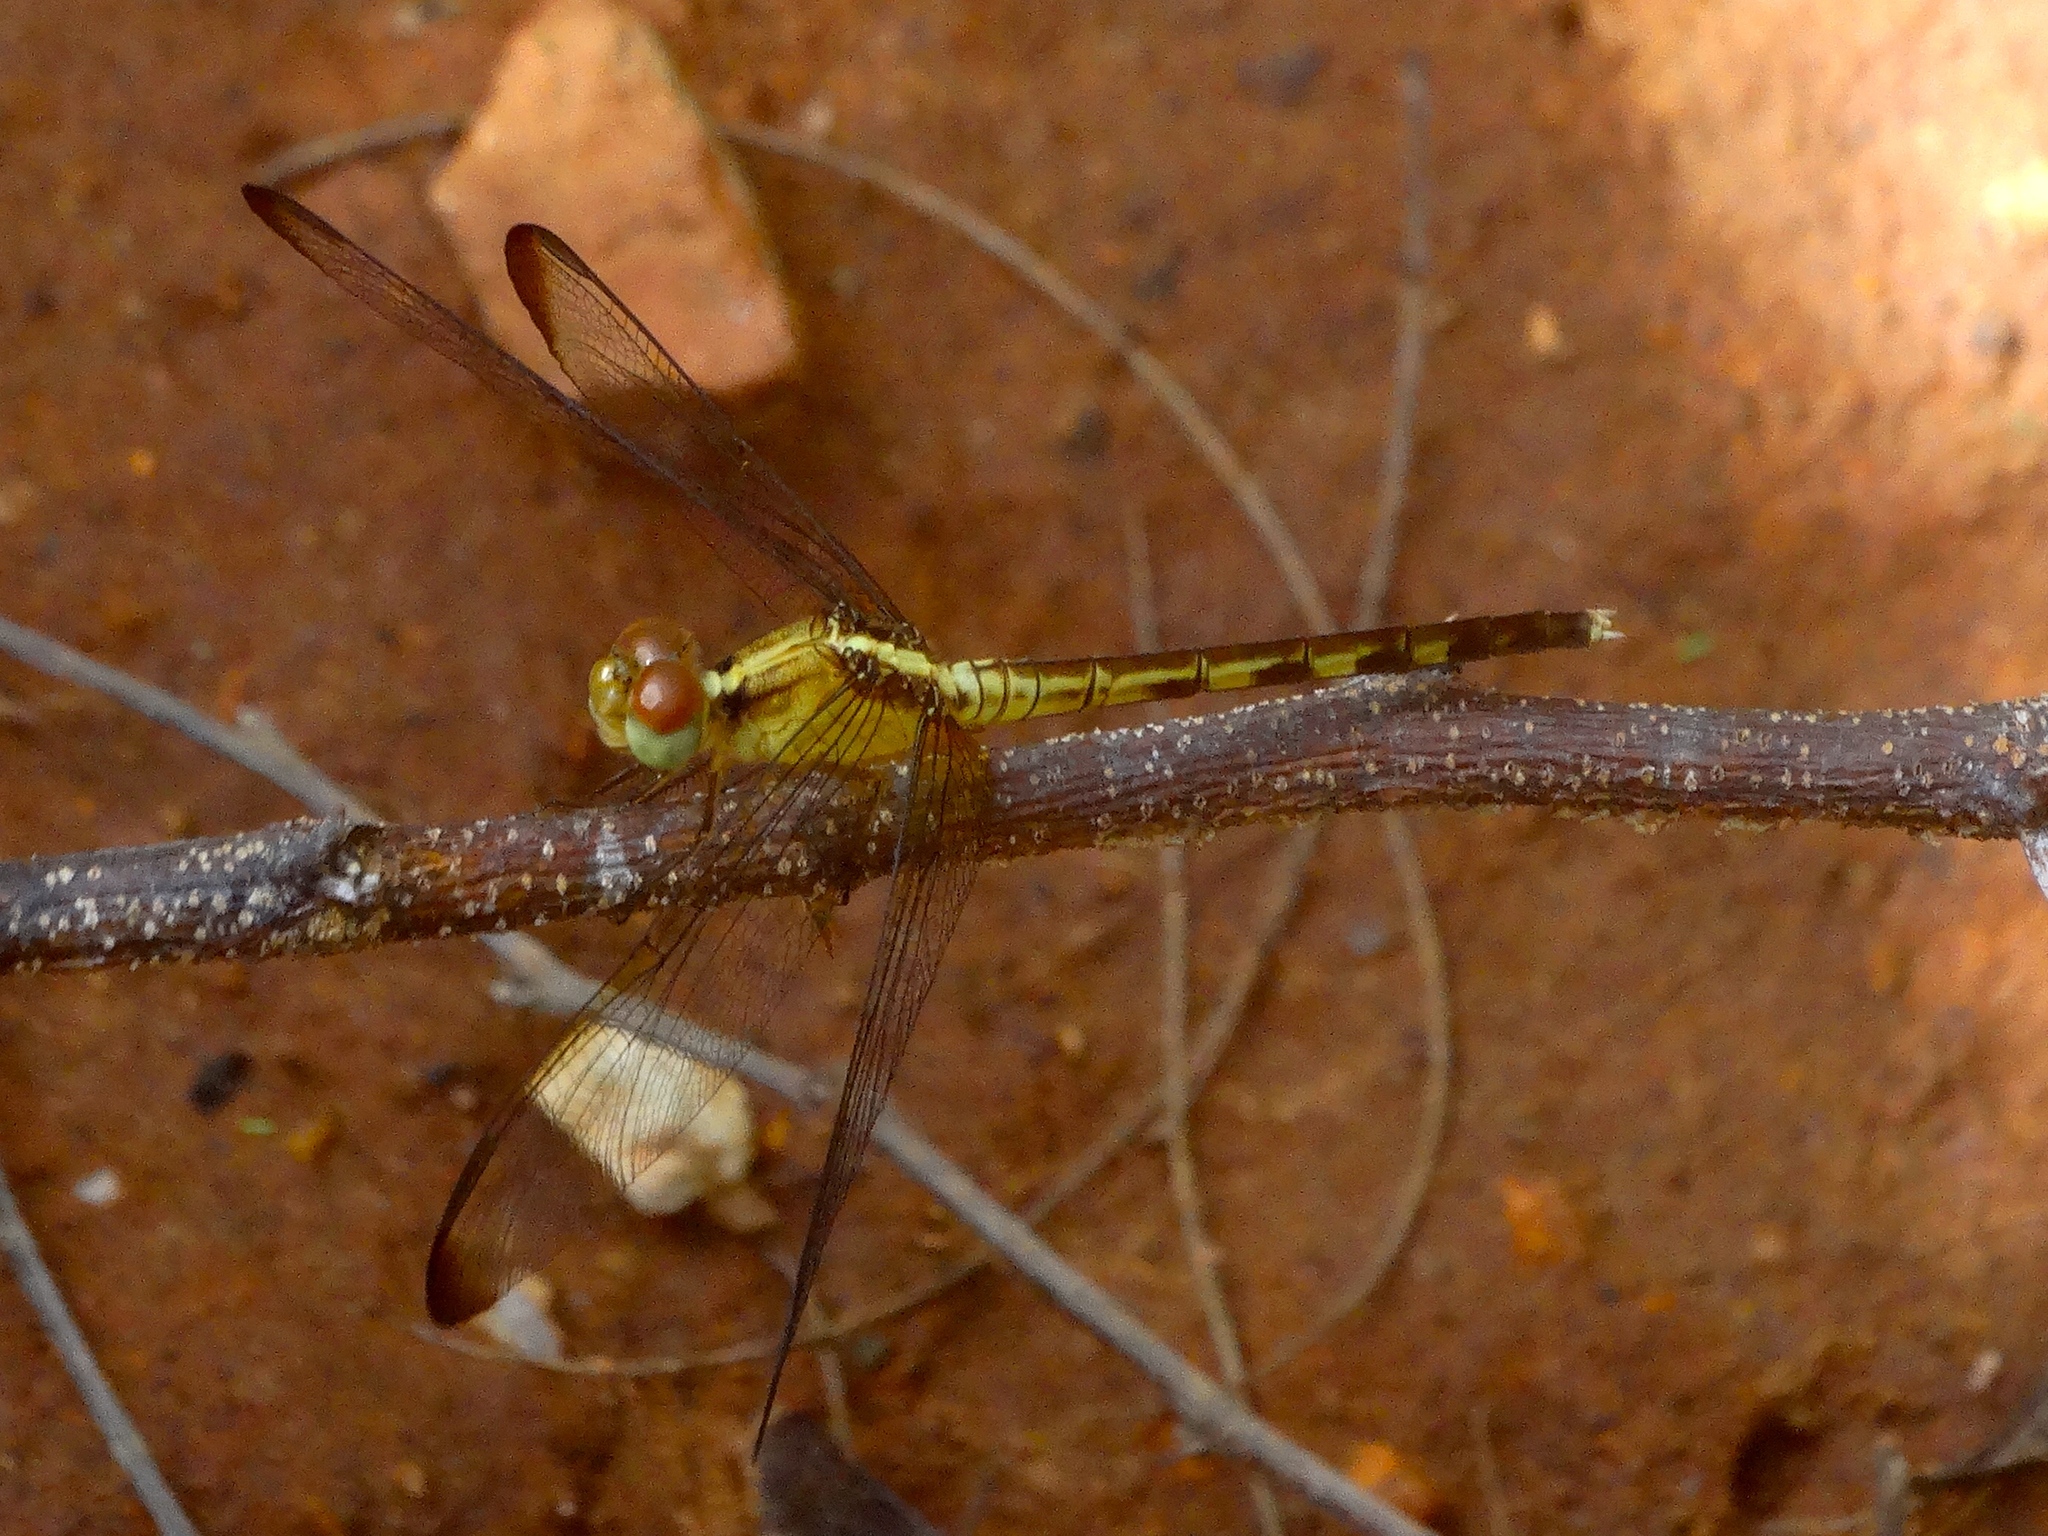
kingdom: Animalia
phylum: Arthropoda
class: Insecta
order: Odonata
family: Libellulidae
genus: Erythrodiplax
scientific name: Erythrodiplax
